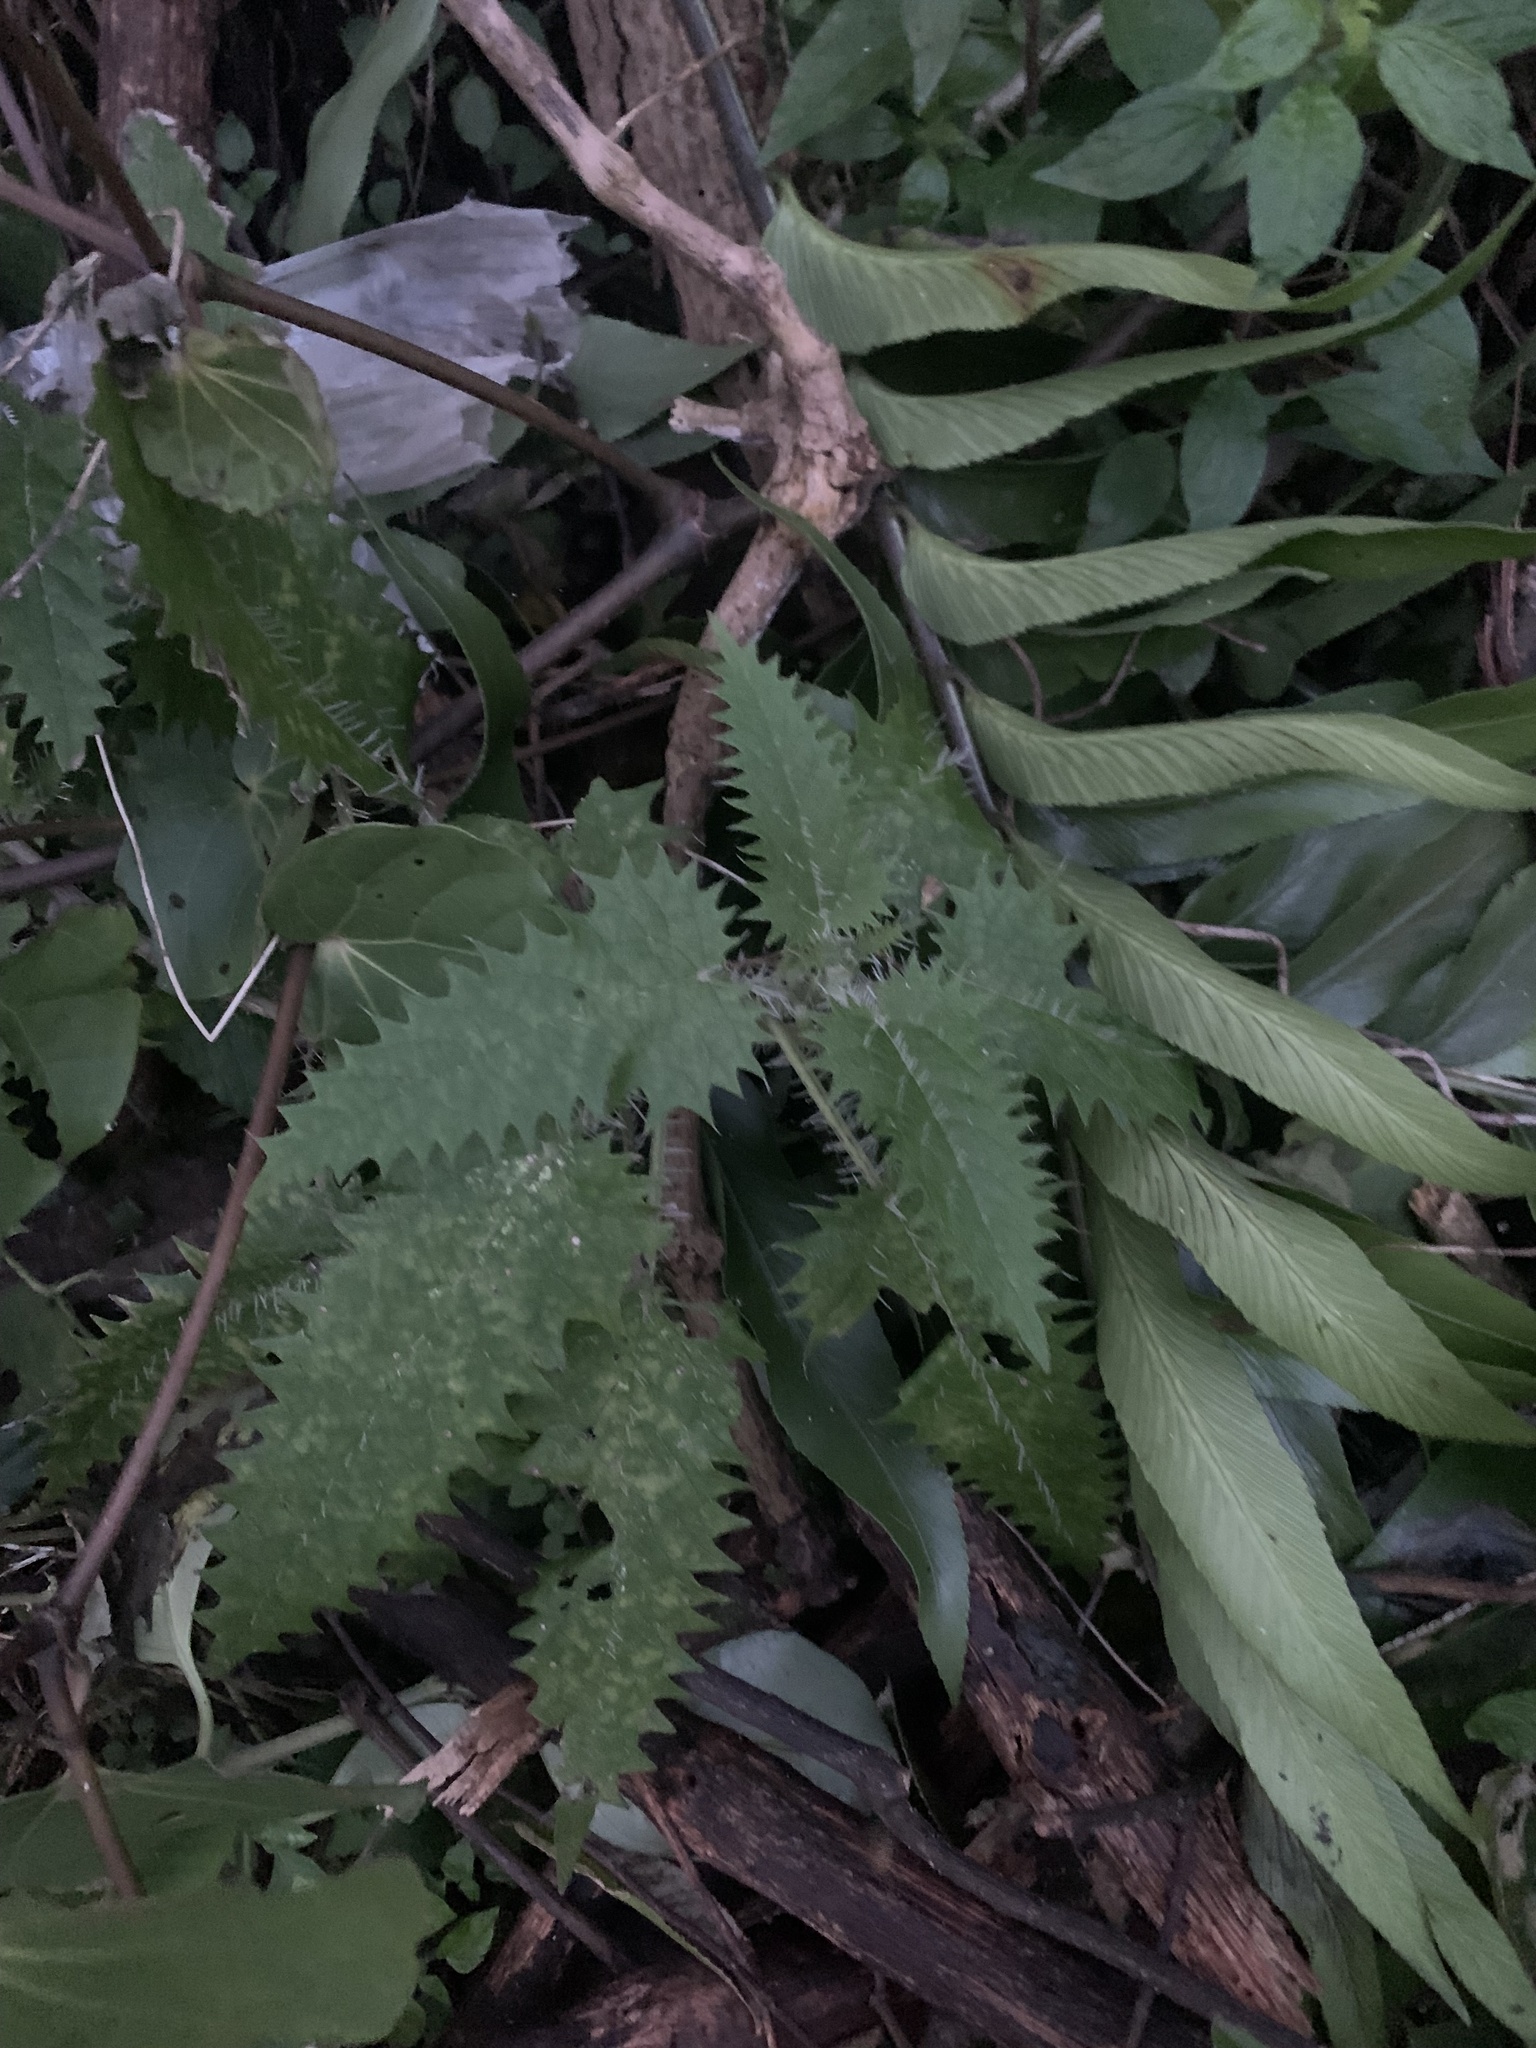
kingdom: Plantae
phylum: Tracheophyta
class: Magnoliopsida
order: Rosales
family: Urticaceae
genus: Urtica
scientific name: Urtica ferox
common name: Tree nettle
